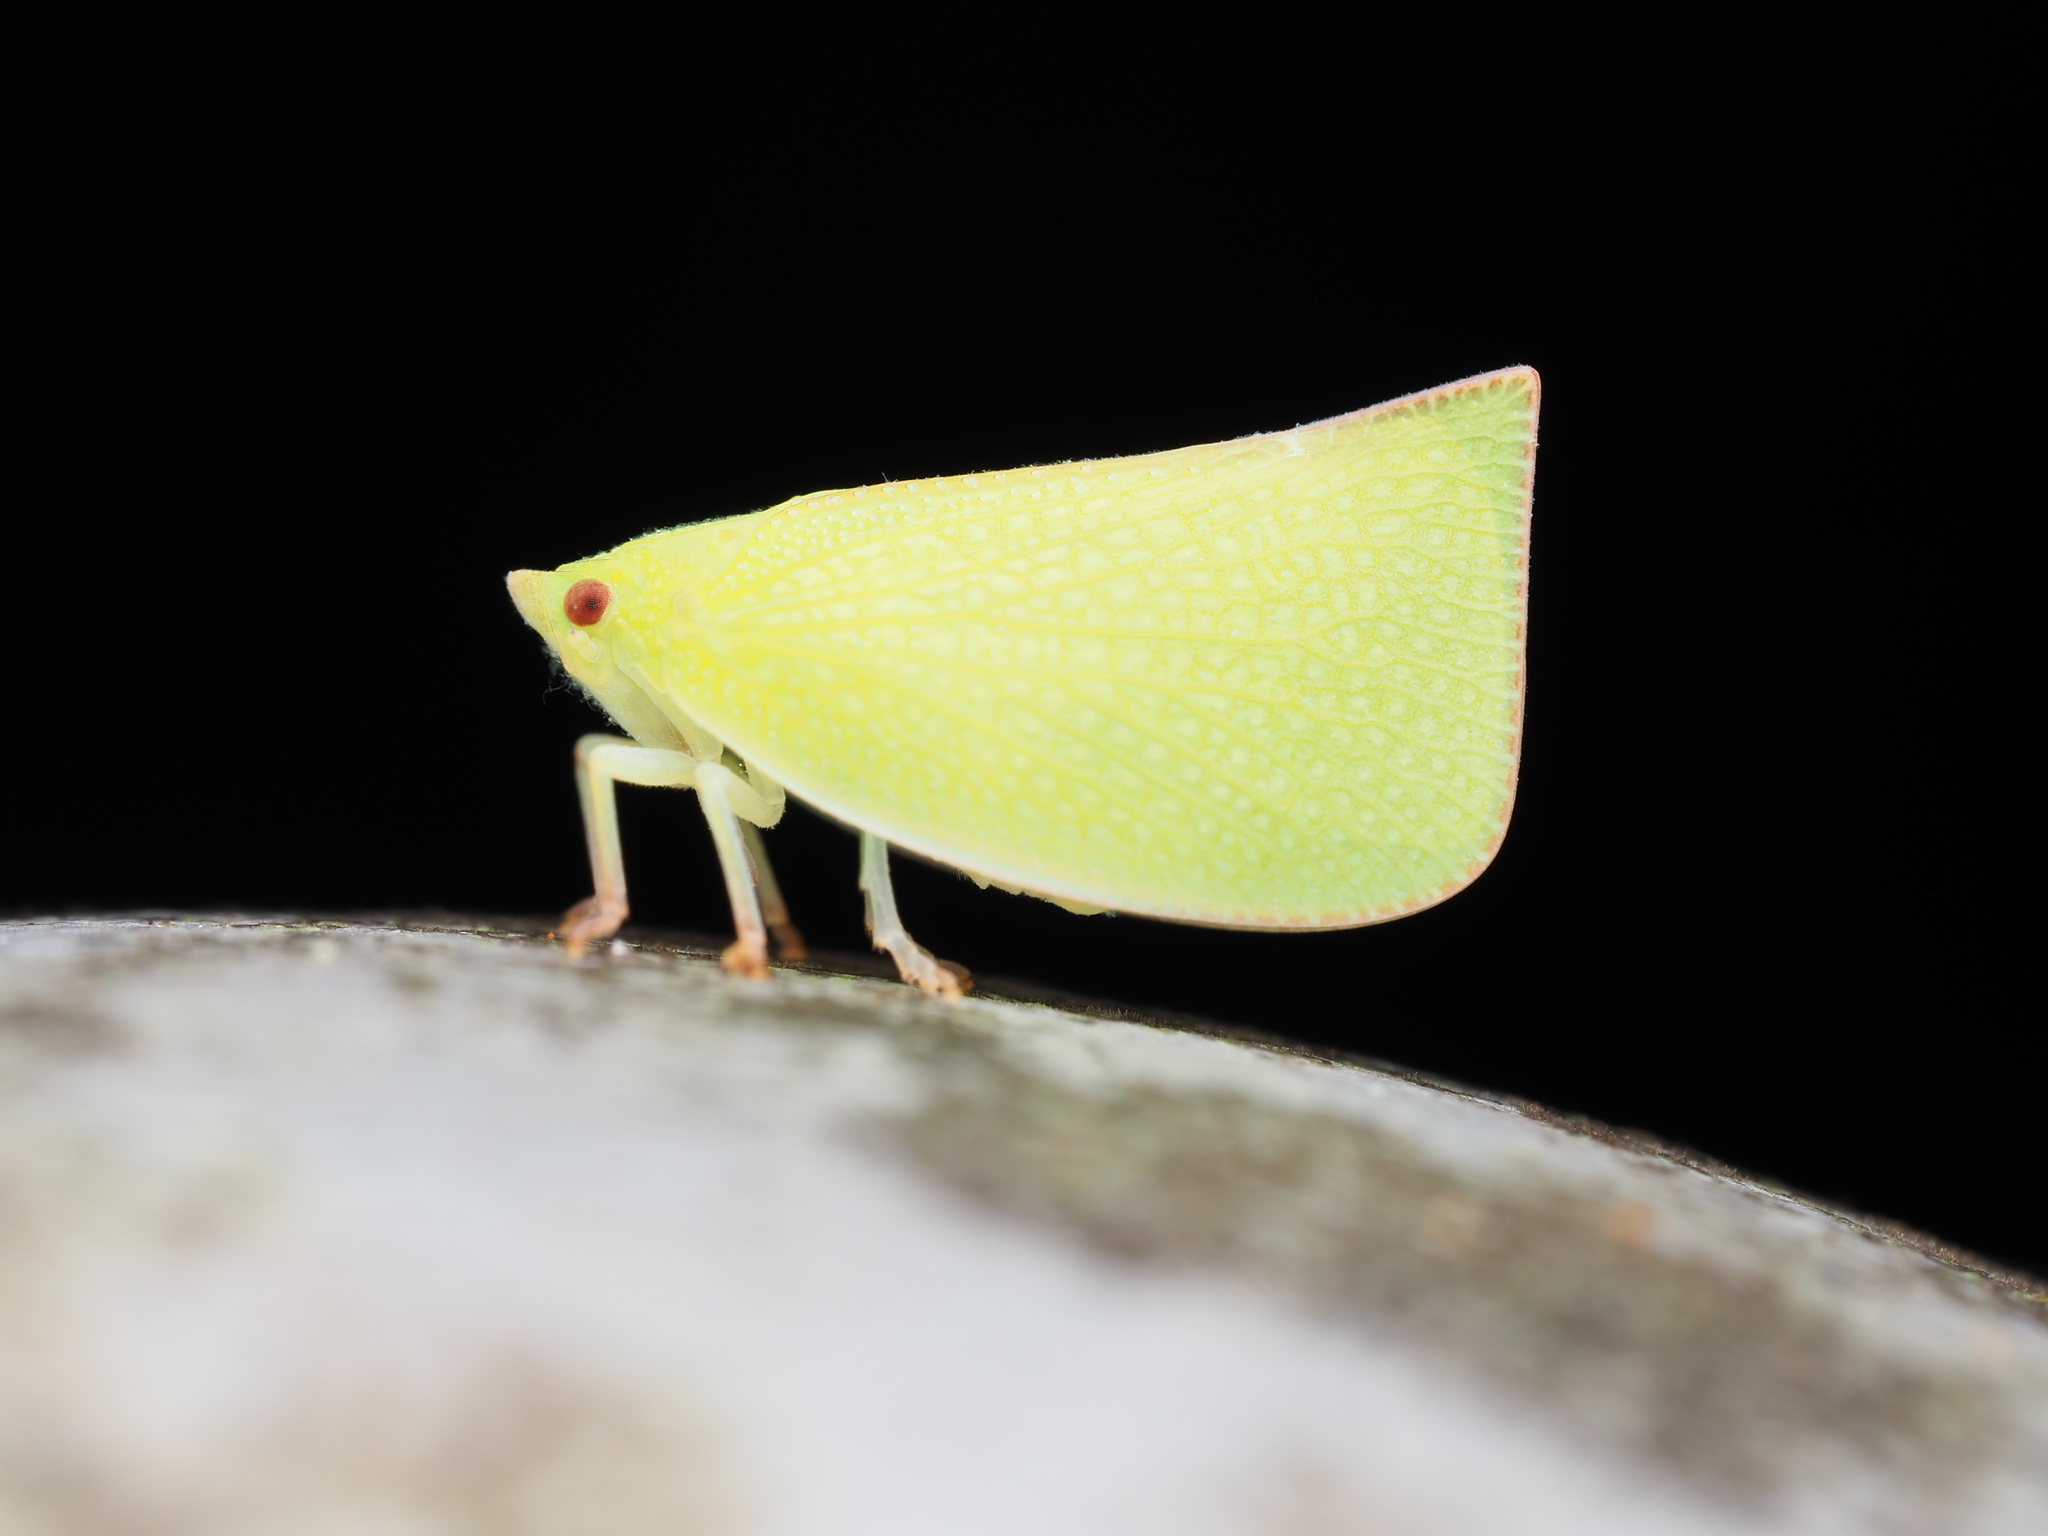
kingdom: Animalia
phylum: Arthropoda
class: Insecta
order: Hemiptera
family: Flatidae
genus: Siphanta
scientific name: Siphanta acuta
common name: Torpedo bug
